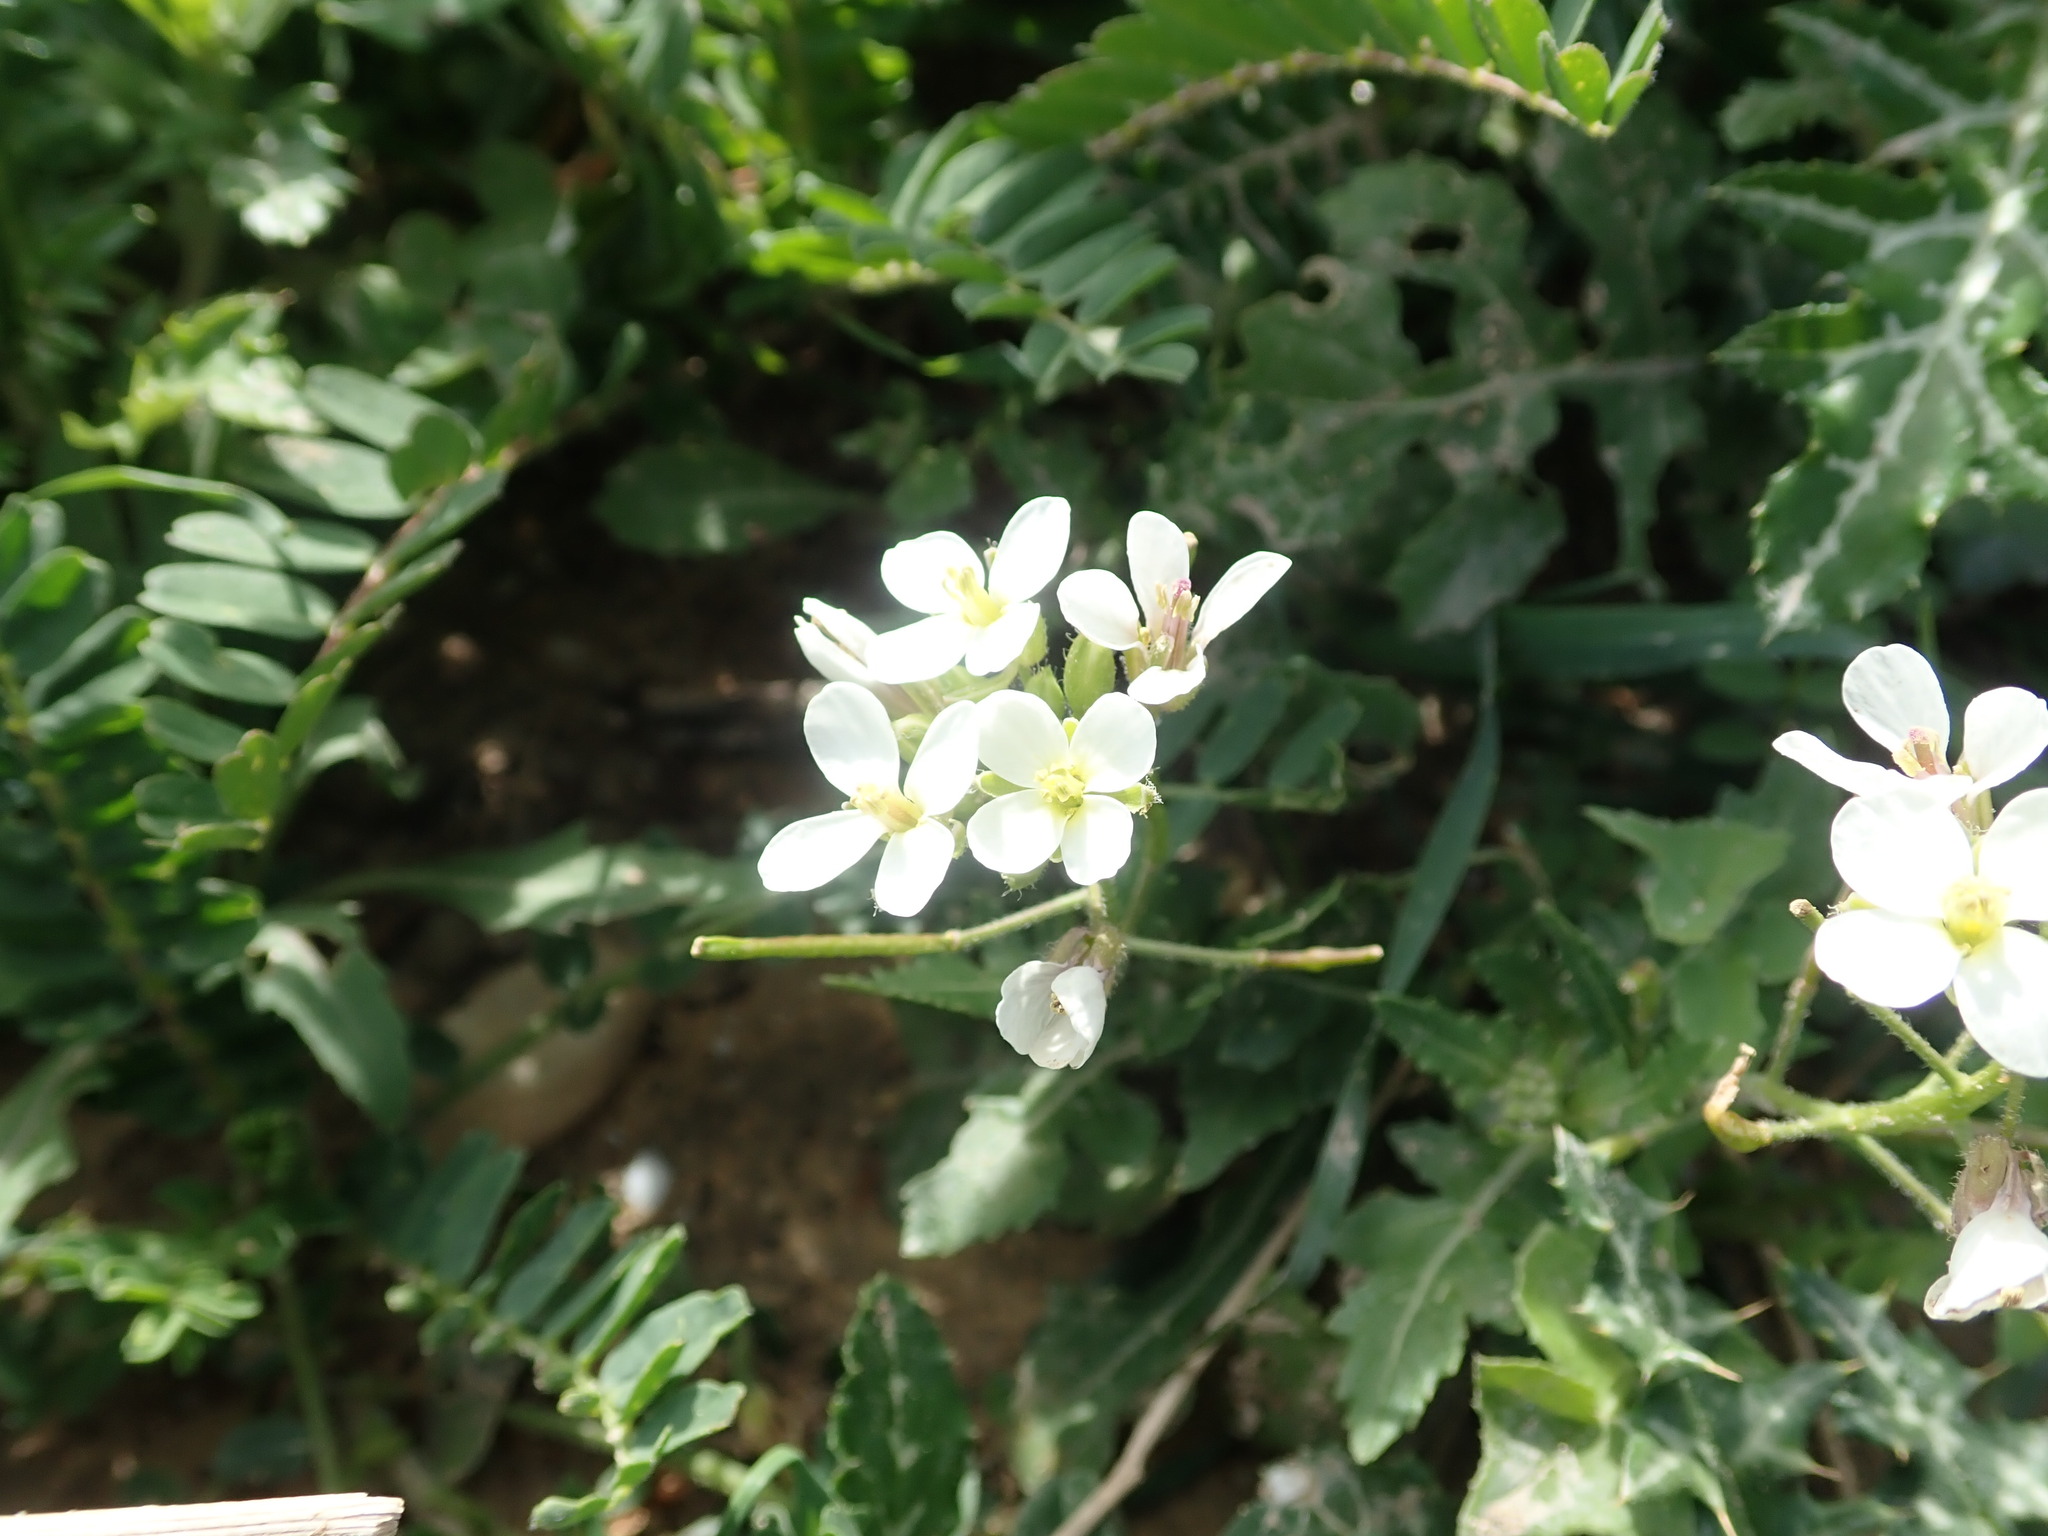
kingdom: Plantae
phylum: Tracheophyta
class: Magnoliopsida
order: Brassicales
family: Brassicaceae
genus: Diplotaxis
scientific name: Diplotaxis erucoides
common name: White rocket
